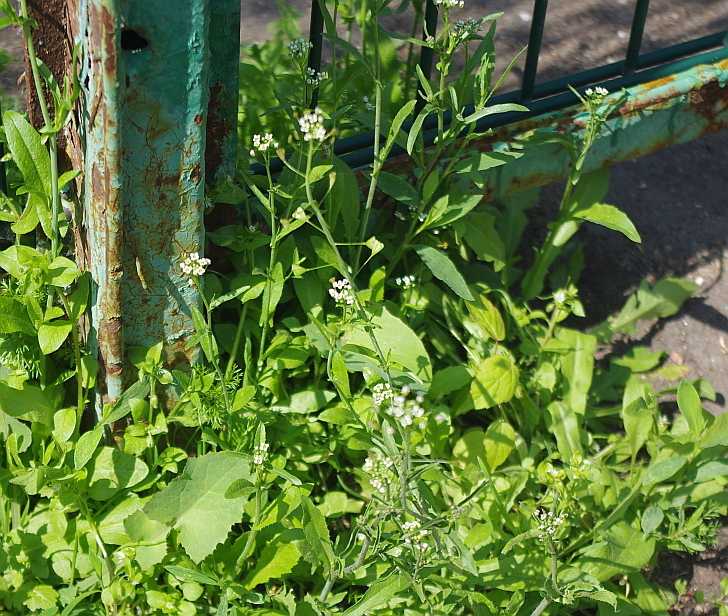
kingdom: Plantae
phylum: Tracheophyta
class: Magnoliopsida
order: Brassicales
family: Brassicaceae
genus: Capsella
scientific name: Capsella bursa-pastoris
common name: Shepherd's purse
